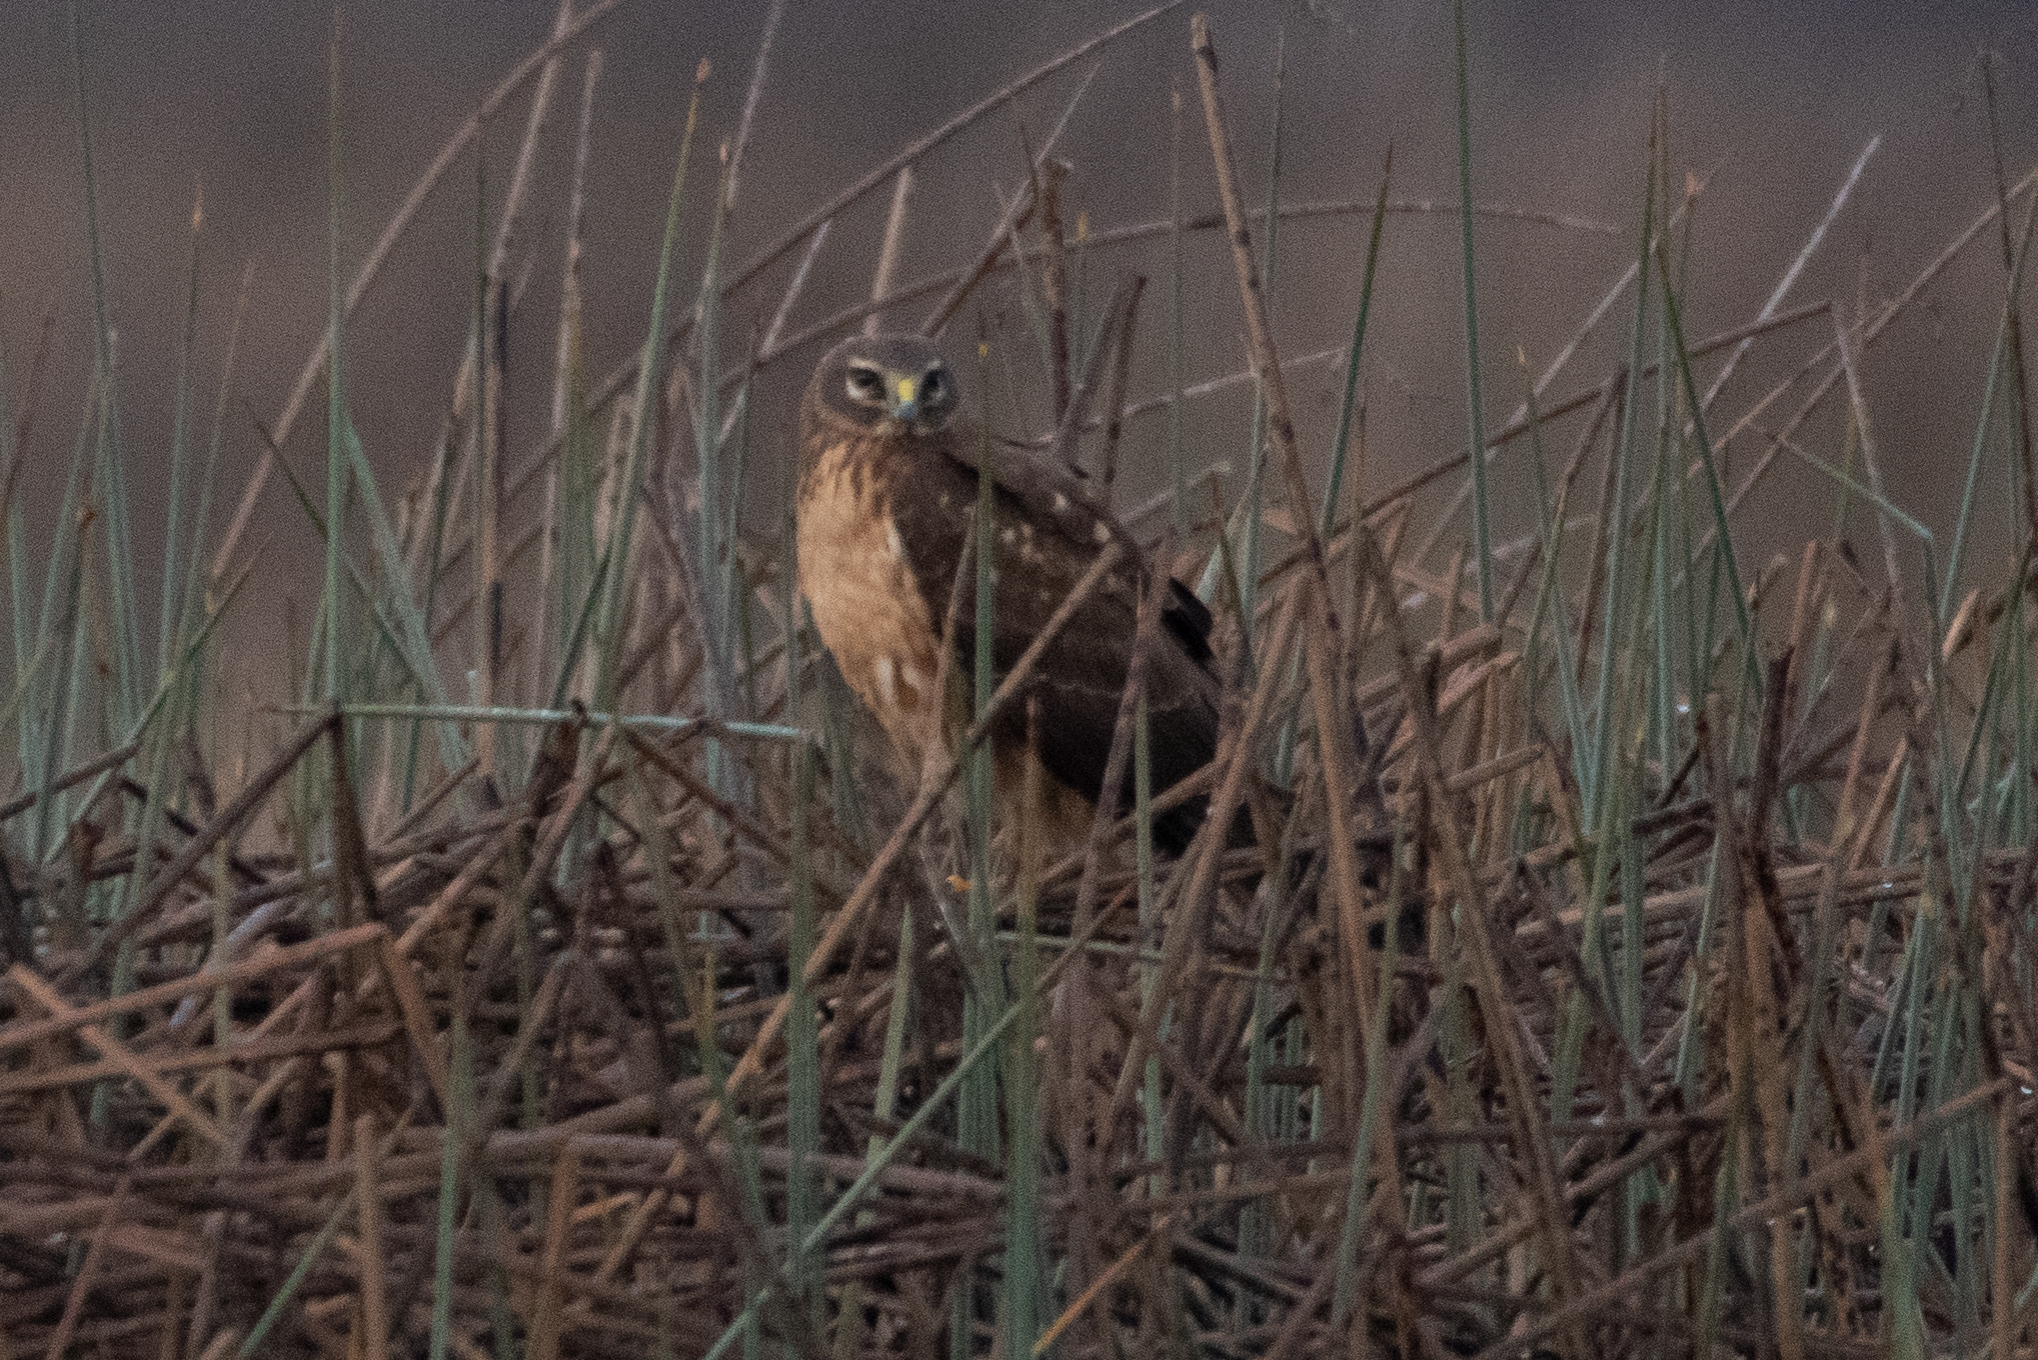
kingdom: Animalia
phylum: Chordata
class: Aves
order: Accipitriformes
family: Accipitridae
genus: Circus
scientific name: Circus cyaneus
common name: Hen harrier
